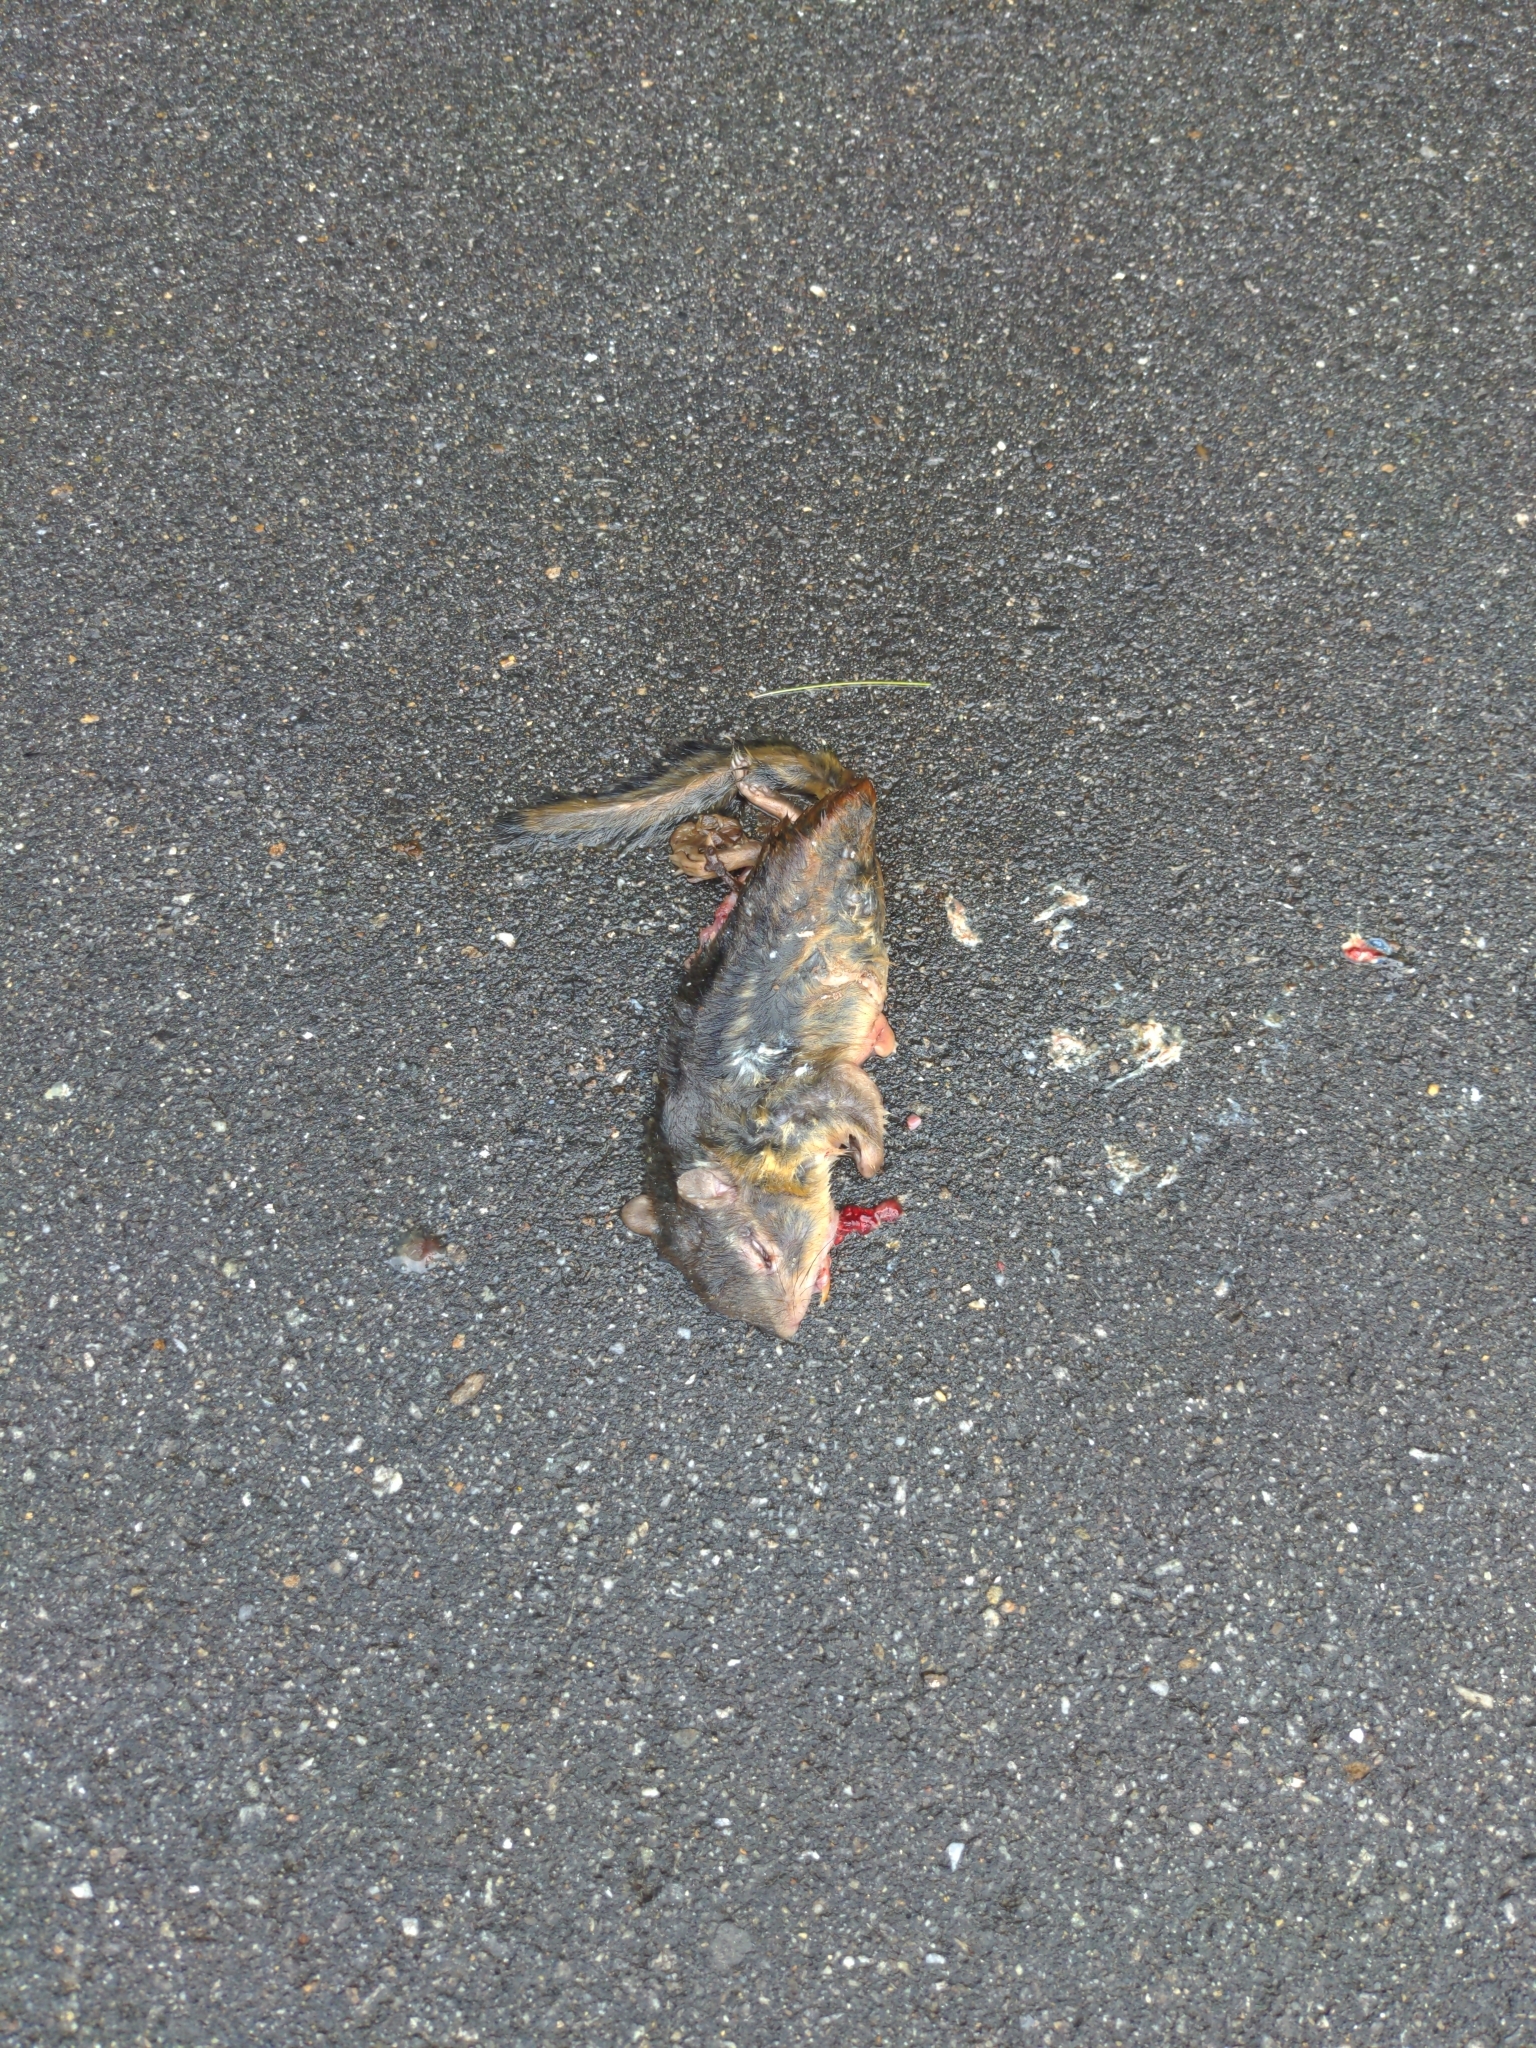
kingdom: Animalia
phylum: Chordata
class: Mammalia
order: Rodentia
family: Sciuridae
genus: Tamias
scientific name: Tamias striatus
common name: Eastern chipmunk
